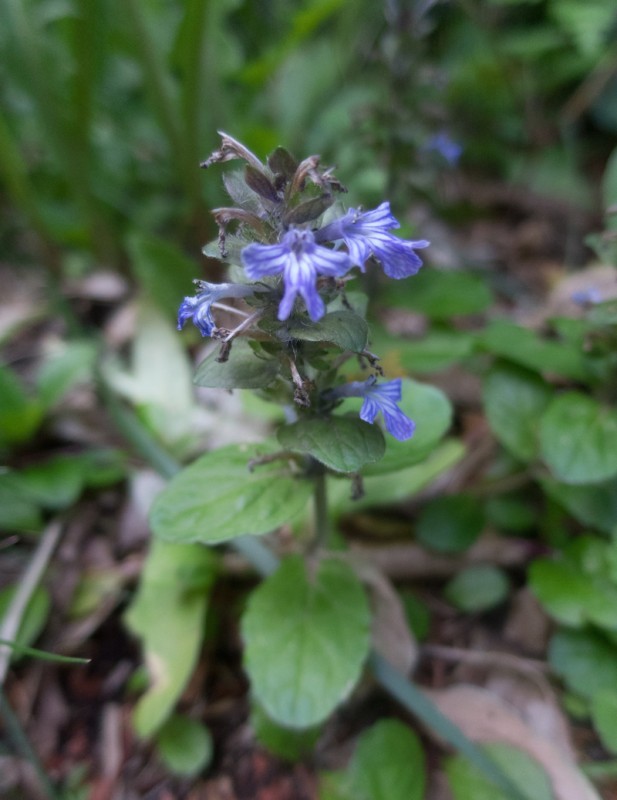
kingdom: Plantae
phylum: Tracheophyta
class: Magnoliopsida
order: Lamiales
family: Lamiaceae
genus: Ajuga
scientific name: Ajuga reptans
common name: Bugle
